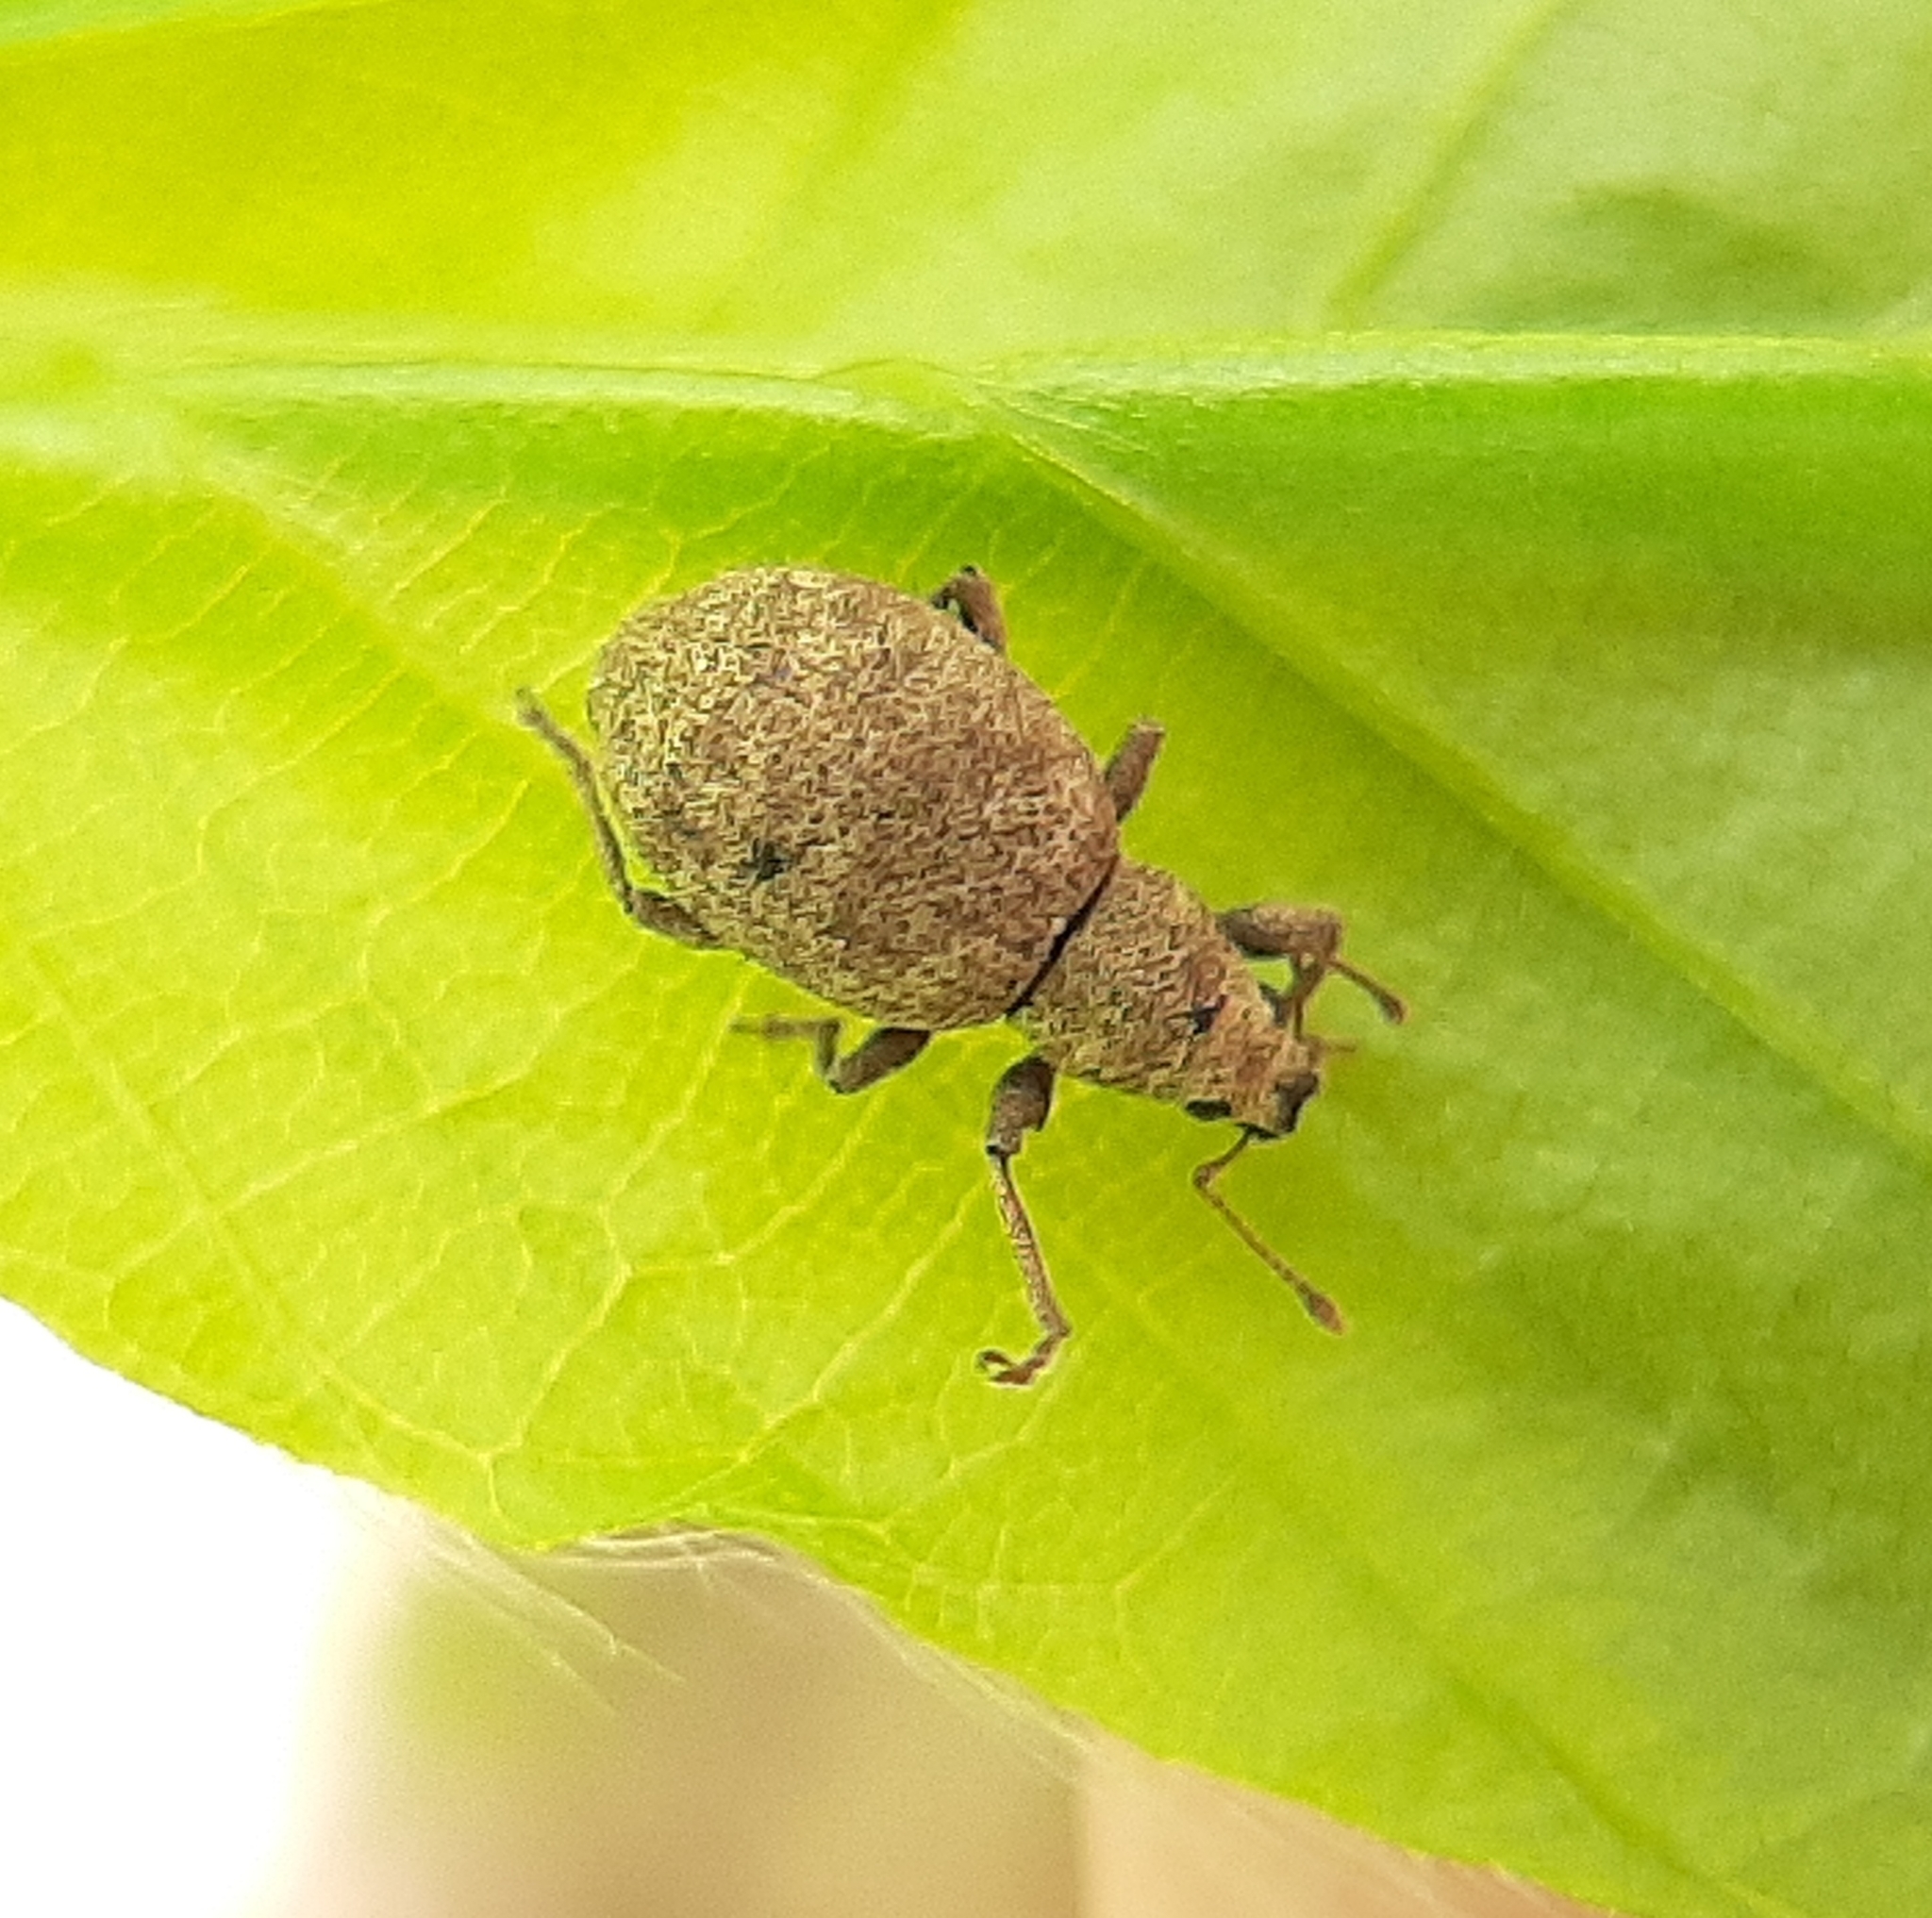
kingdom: Animalia
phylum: Arthropoda
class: Insecta
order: Coleoptera
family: Curculionidae
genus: Sciaphilus
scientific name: Sciaphilus asperatus
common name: Weevil
